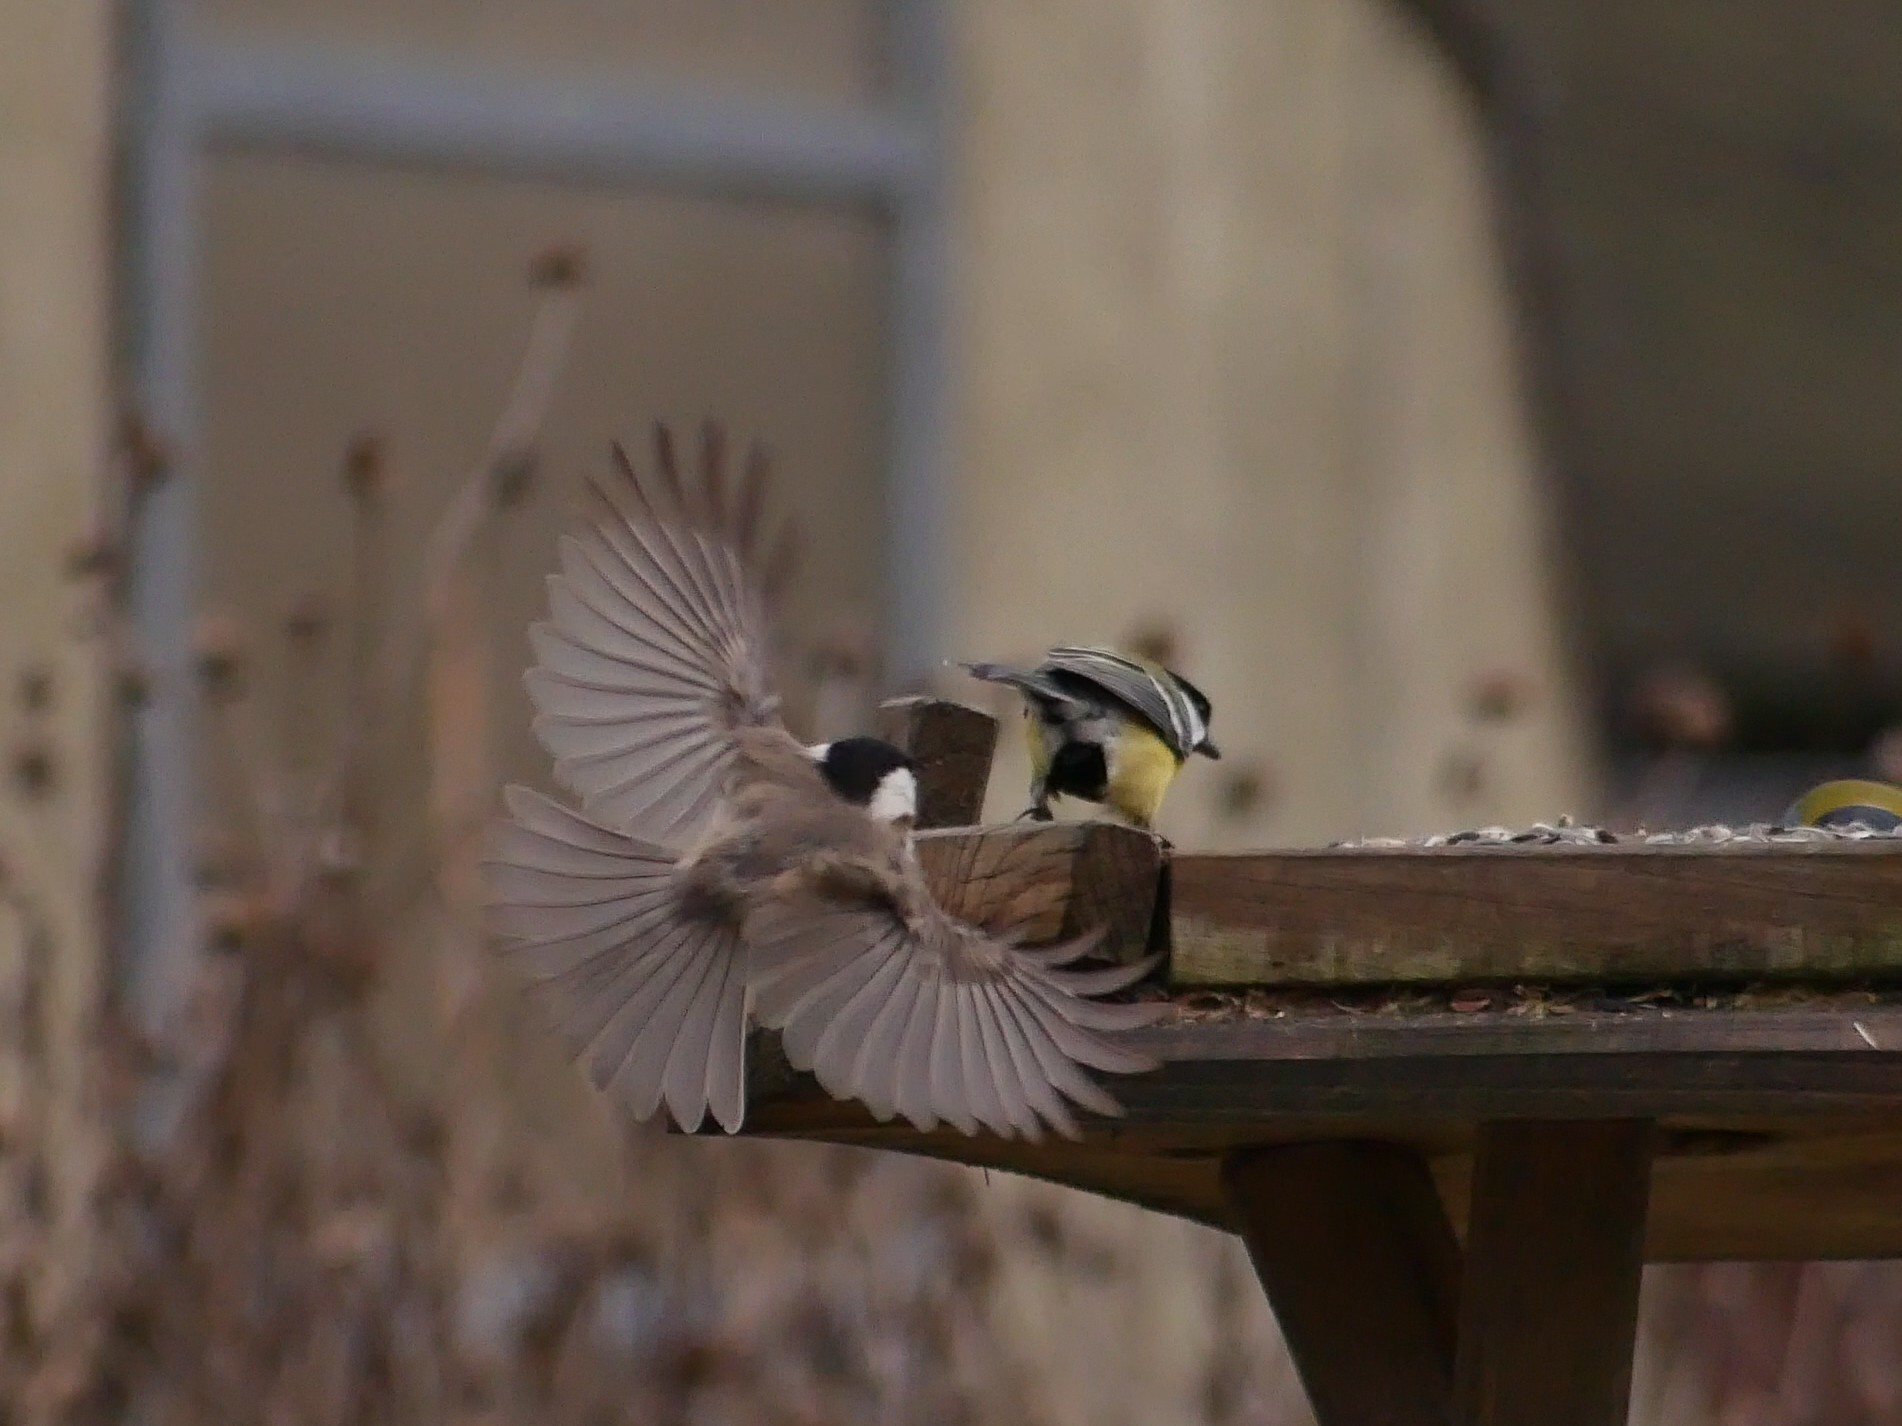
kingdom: Animalia
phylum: Chordata
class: Aves
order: Passeriformes
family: Paridae
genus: Poecile
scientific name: Poecile
